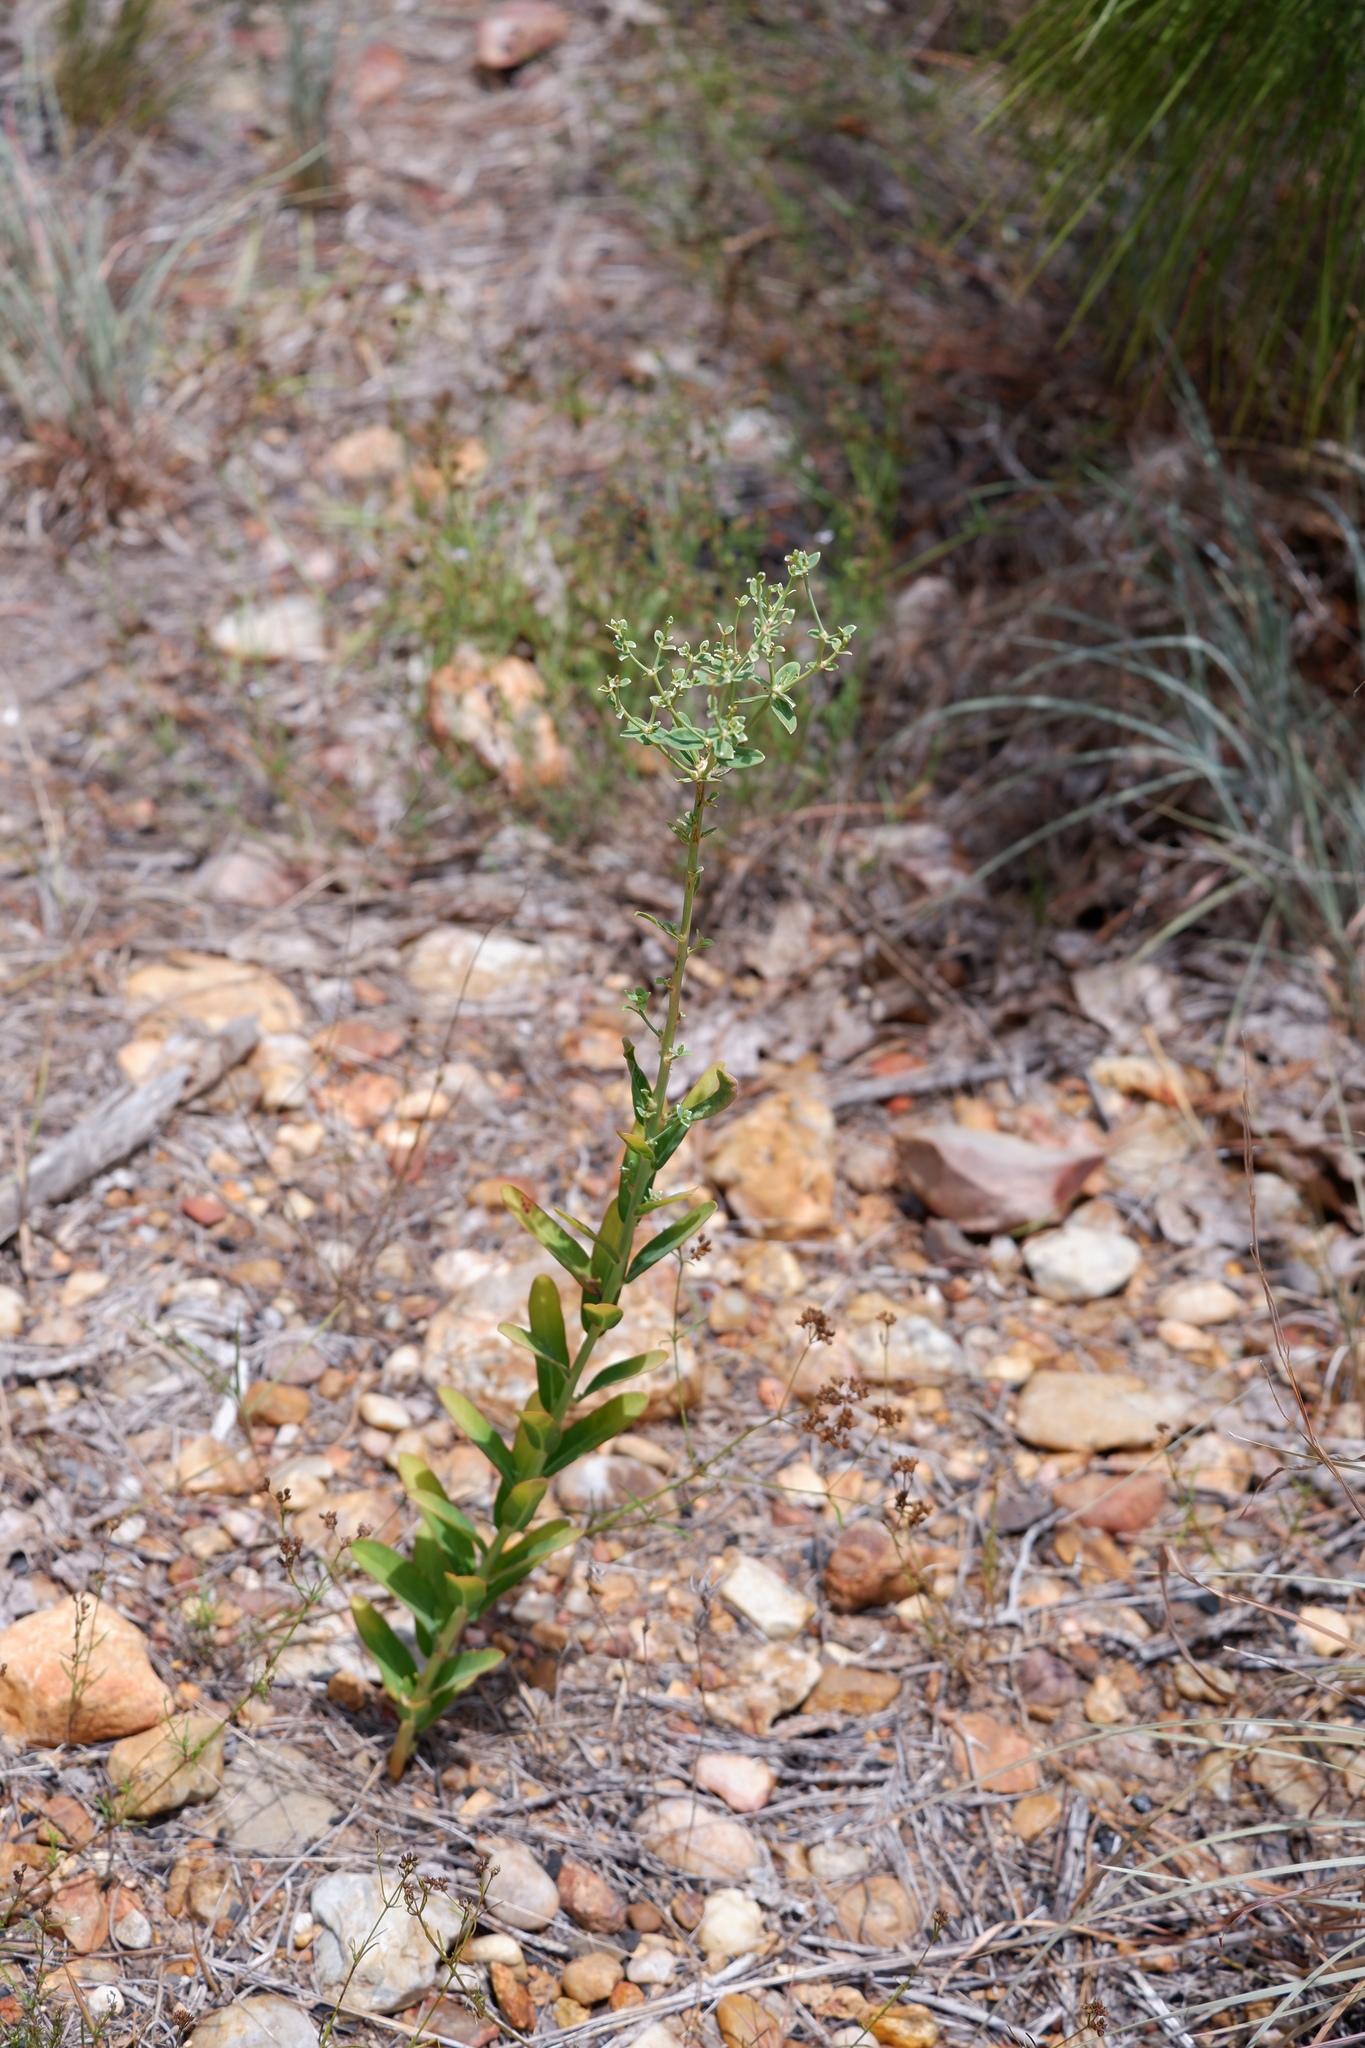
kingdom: Plantae
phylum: Tracheophyta
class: Magnoliopsida
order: Malpighiales
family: Euphorbiaceae
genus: Euphorbia
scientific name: Euphorbia corollata
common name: Flowering spurge
